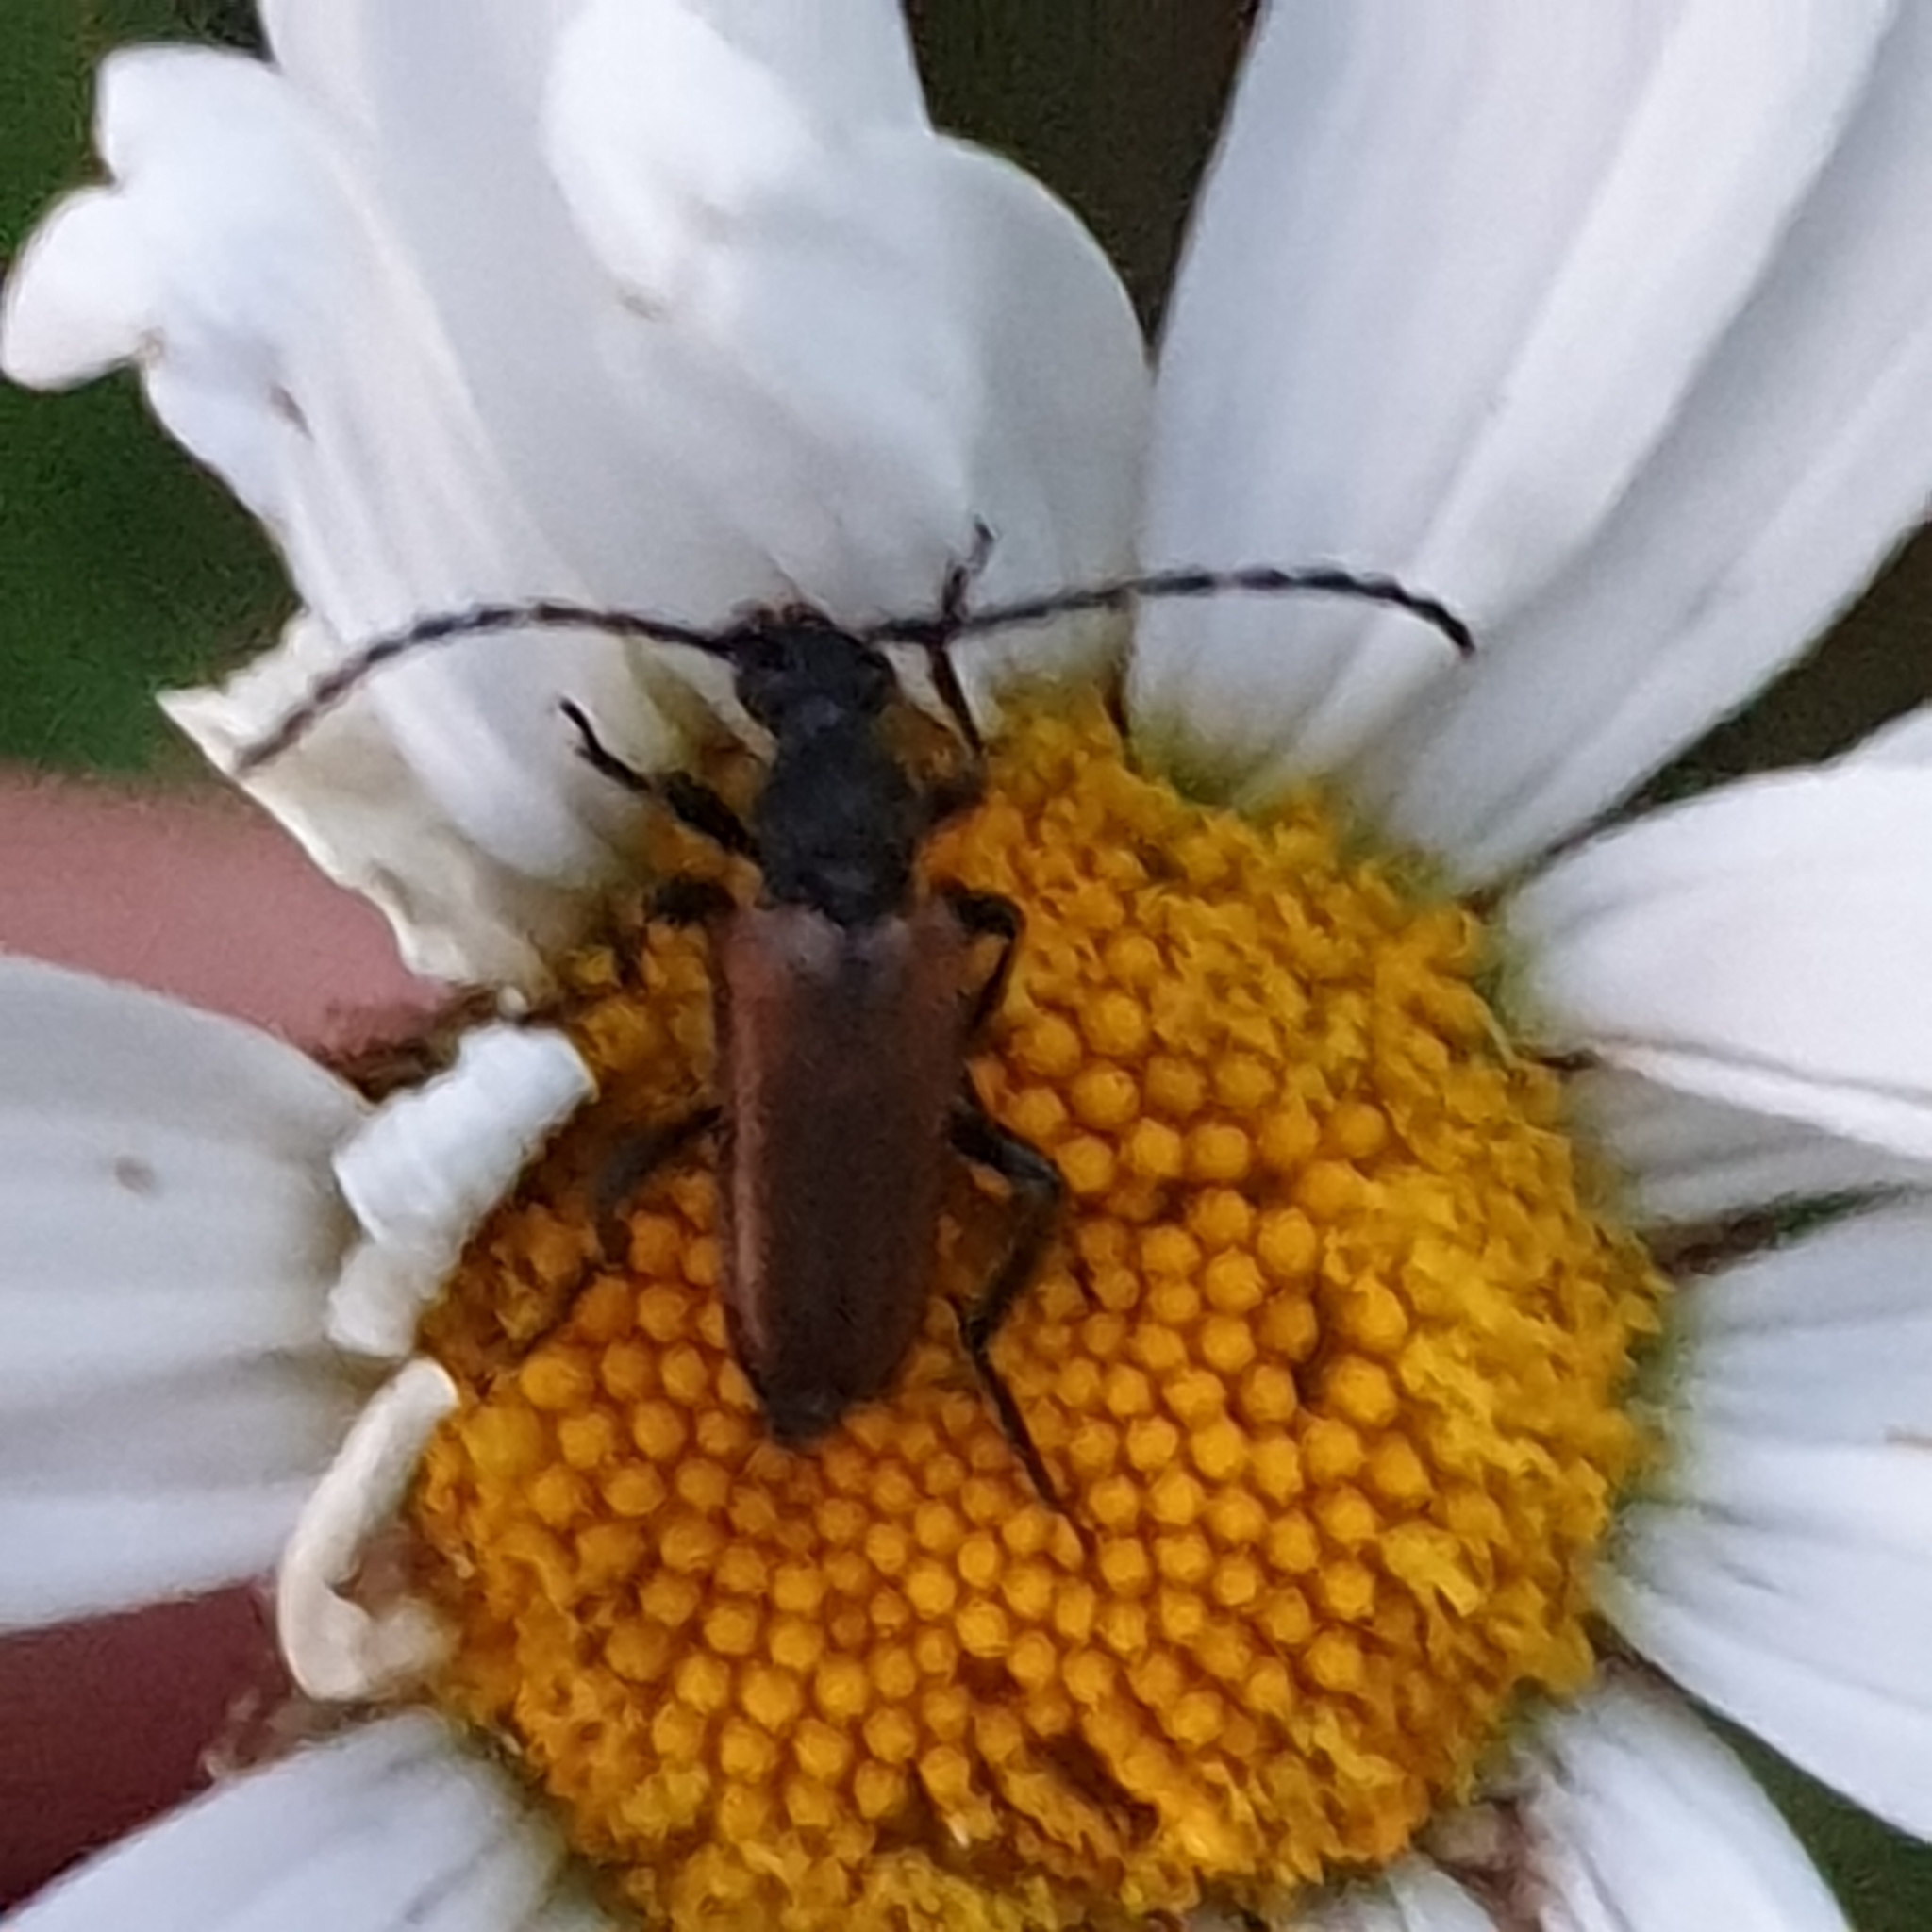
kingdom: Animalia
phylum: Arthropoda
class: Insecta
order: Coleoptera
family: Cerambycidae
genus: Paracorymbia
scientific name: Paracorymbia maculicornis
